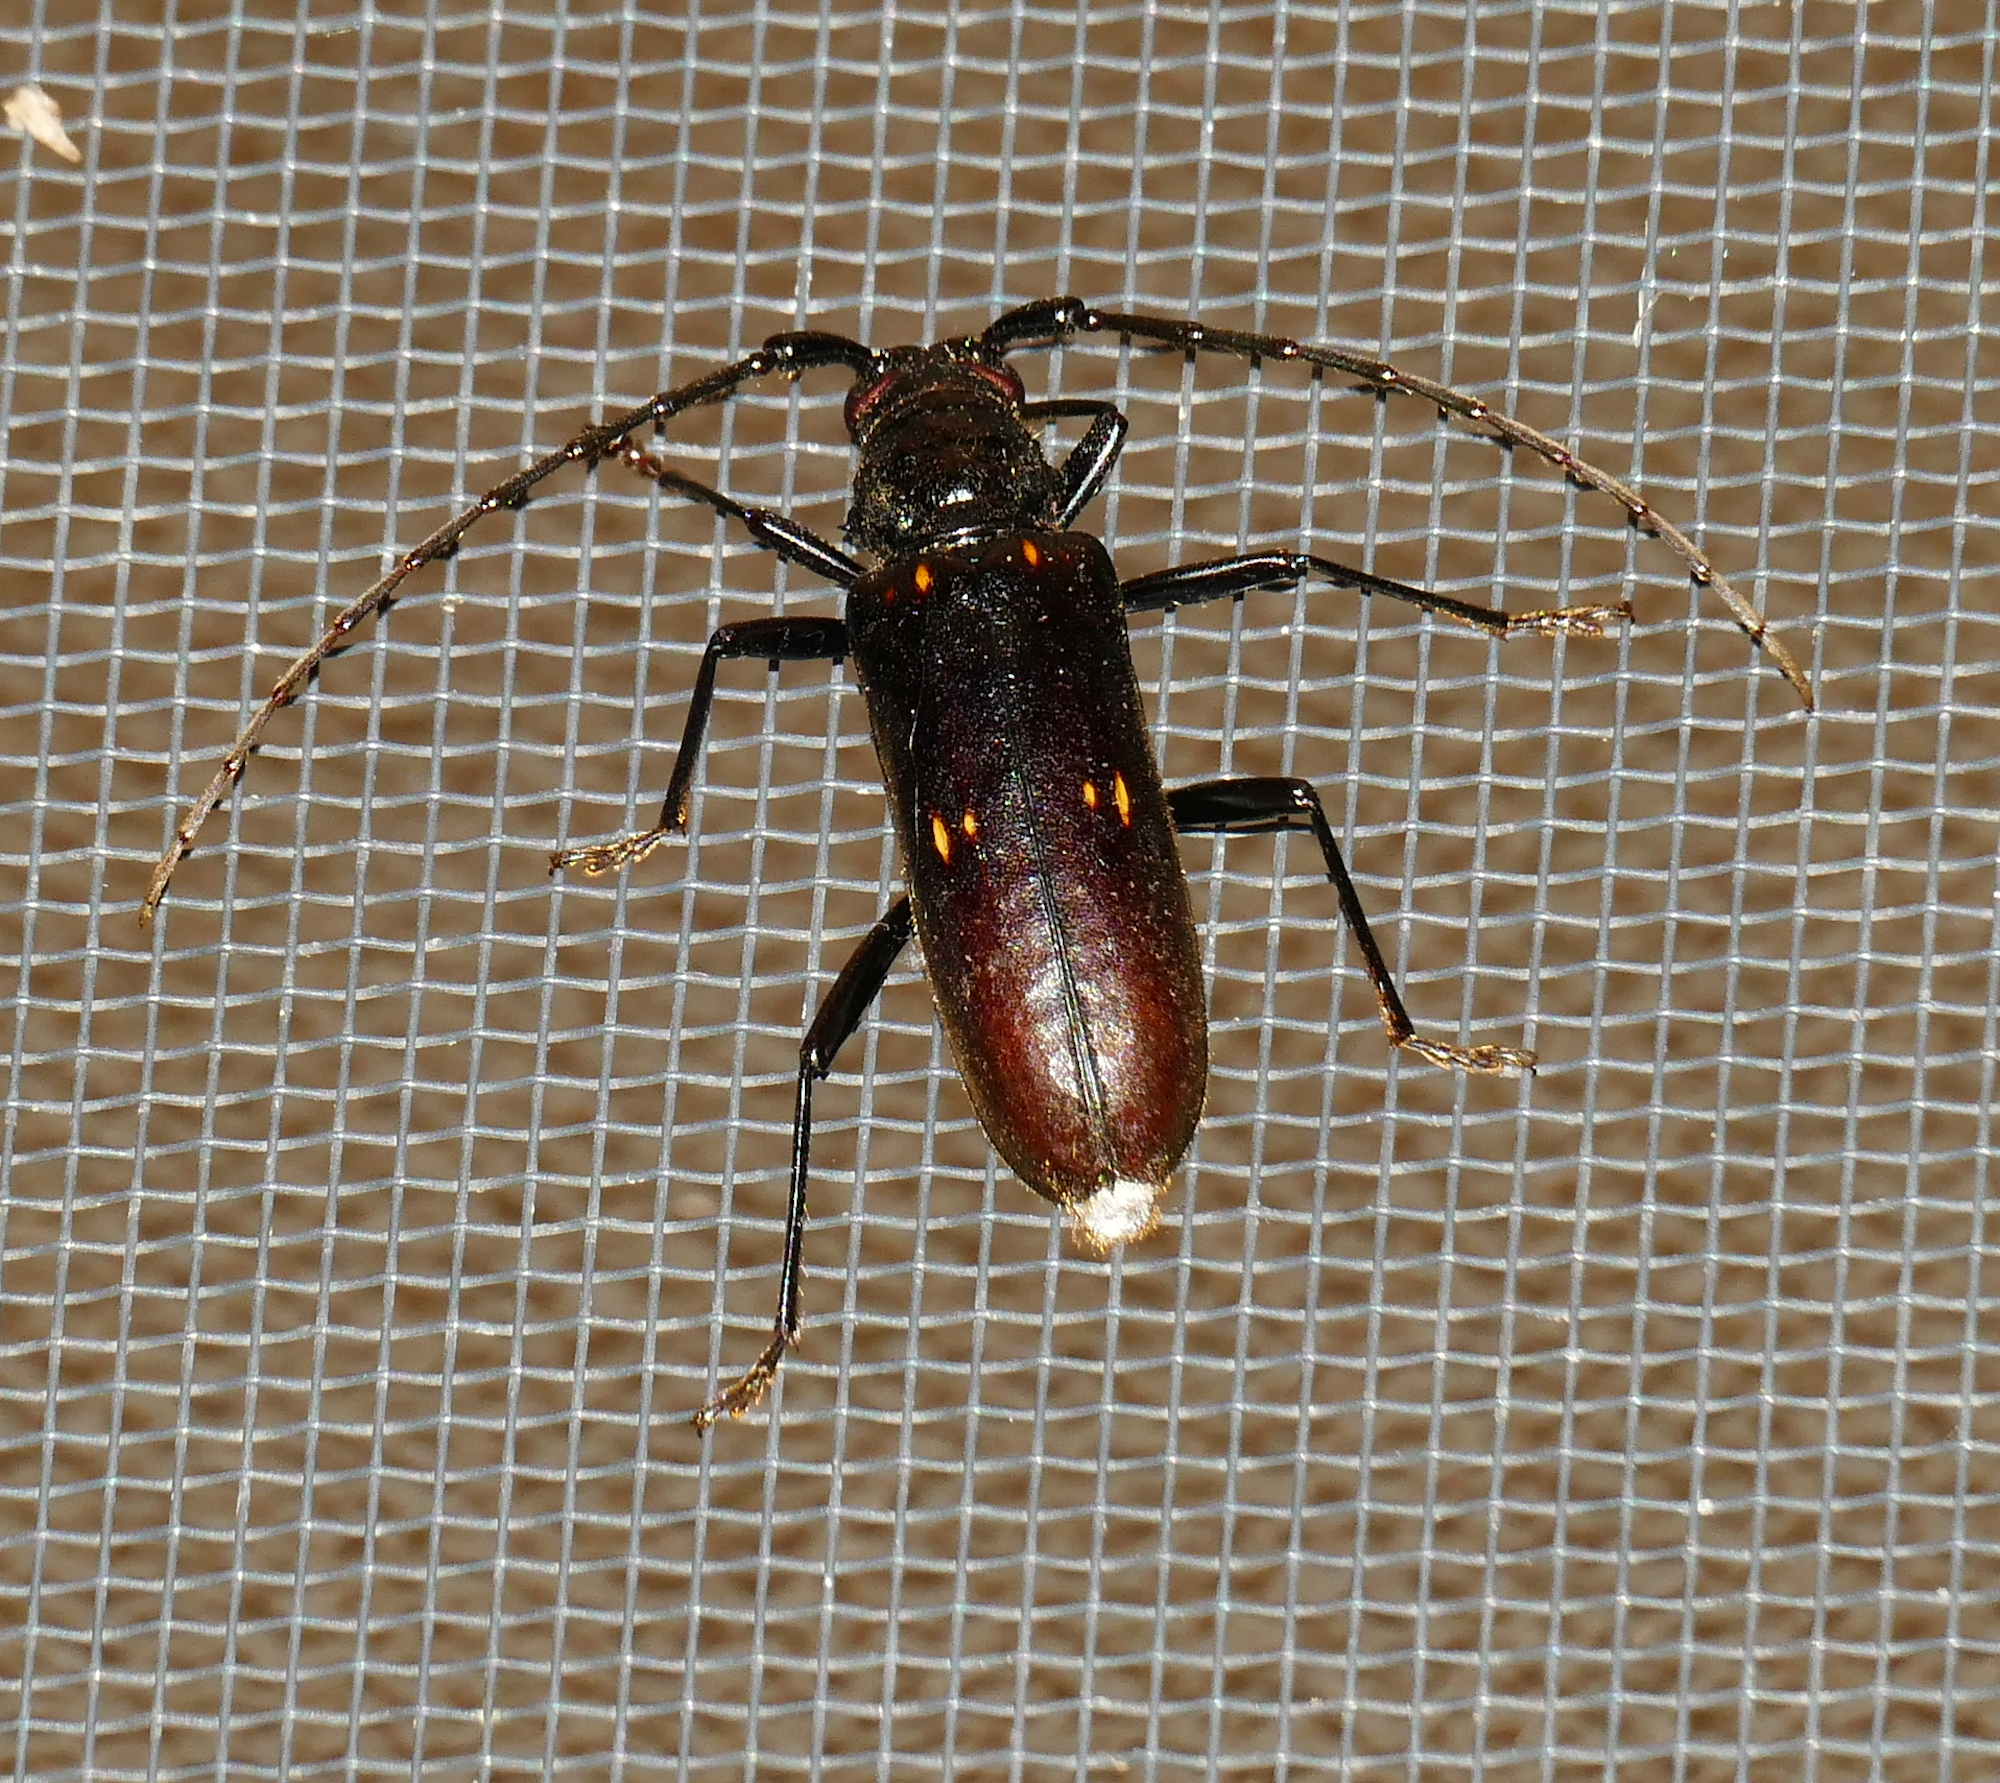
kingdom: Animalia
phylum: Arthropoda
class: Insecta
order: Coleoptera
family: Cerambycidae
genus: Susuacanga
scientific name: Susuacanga falli
